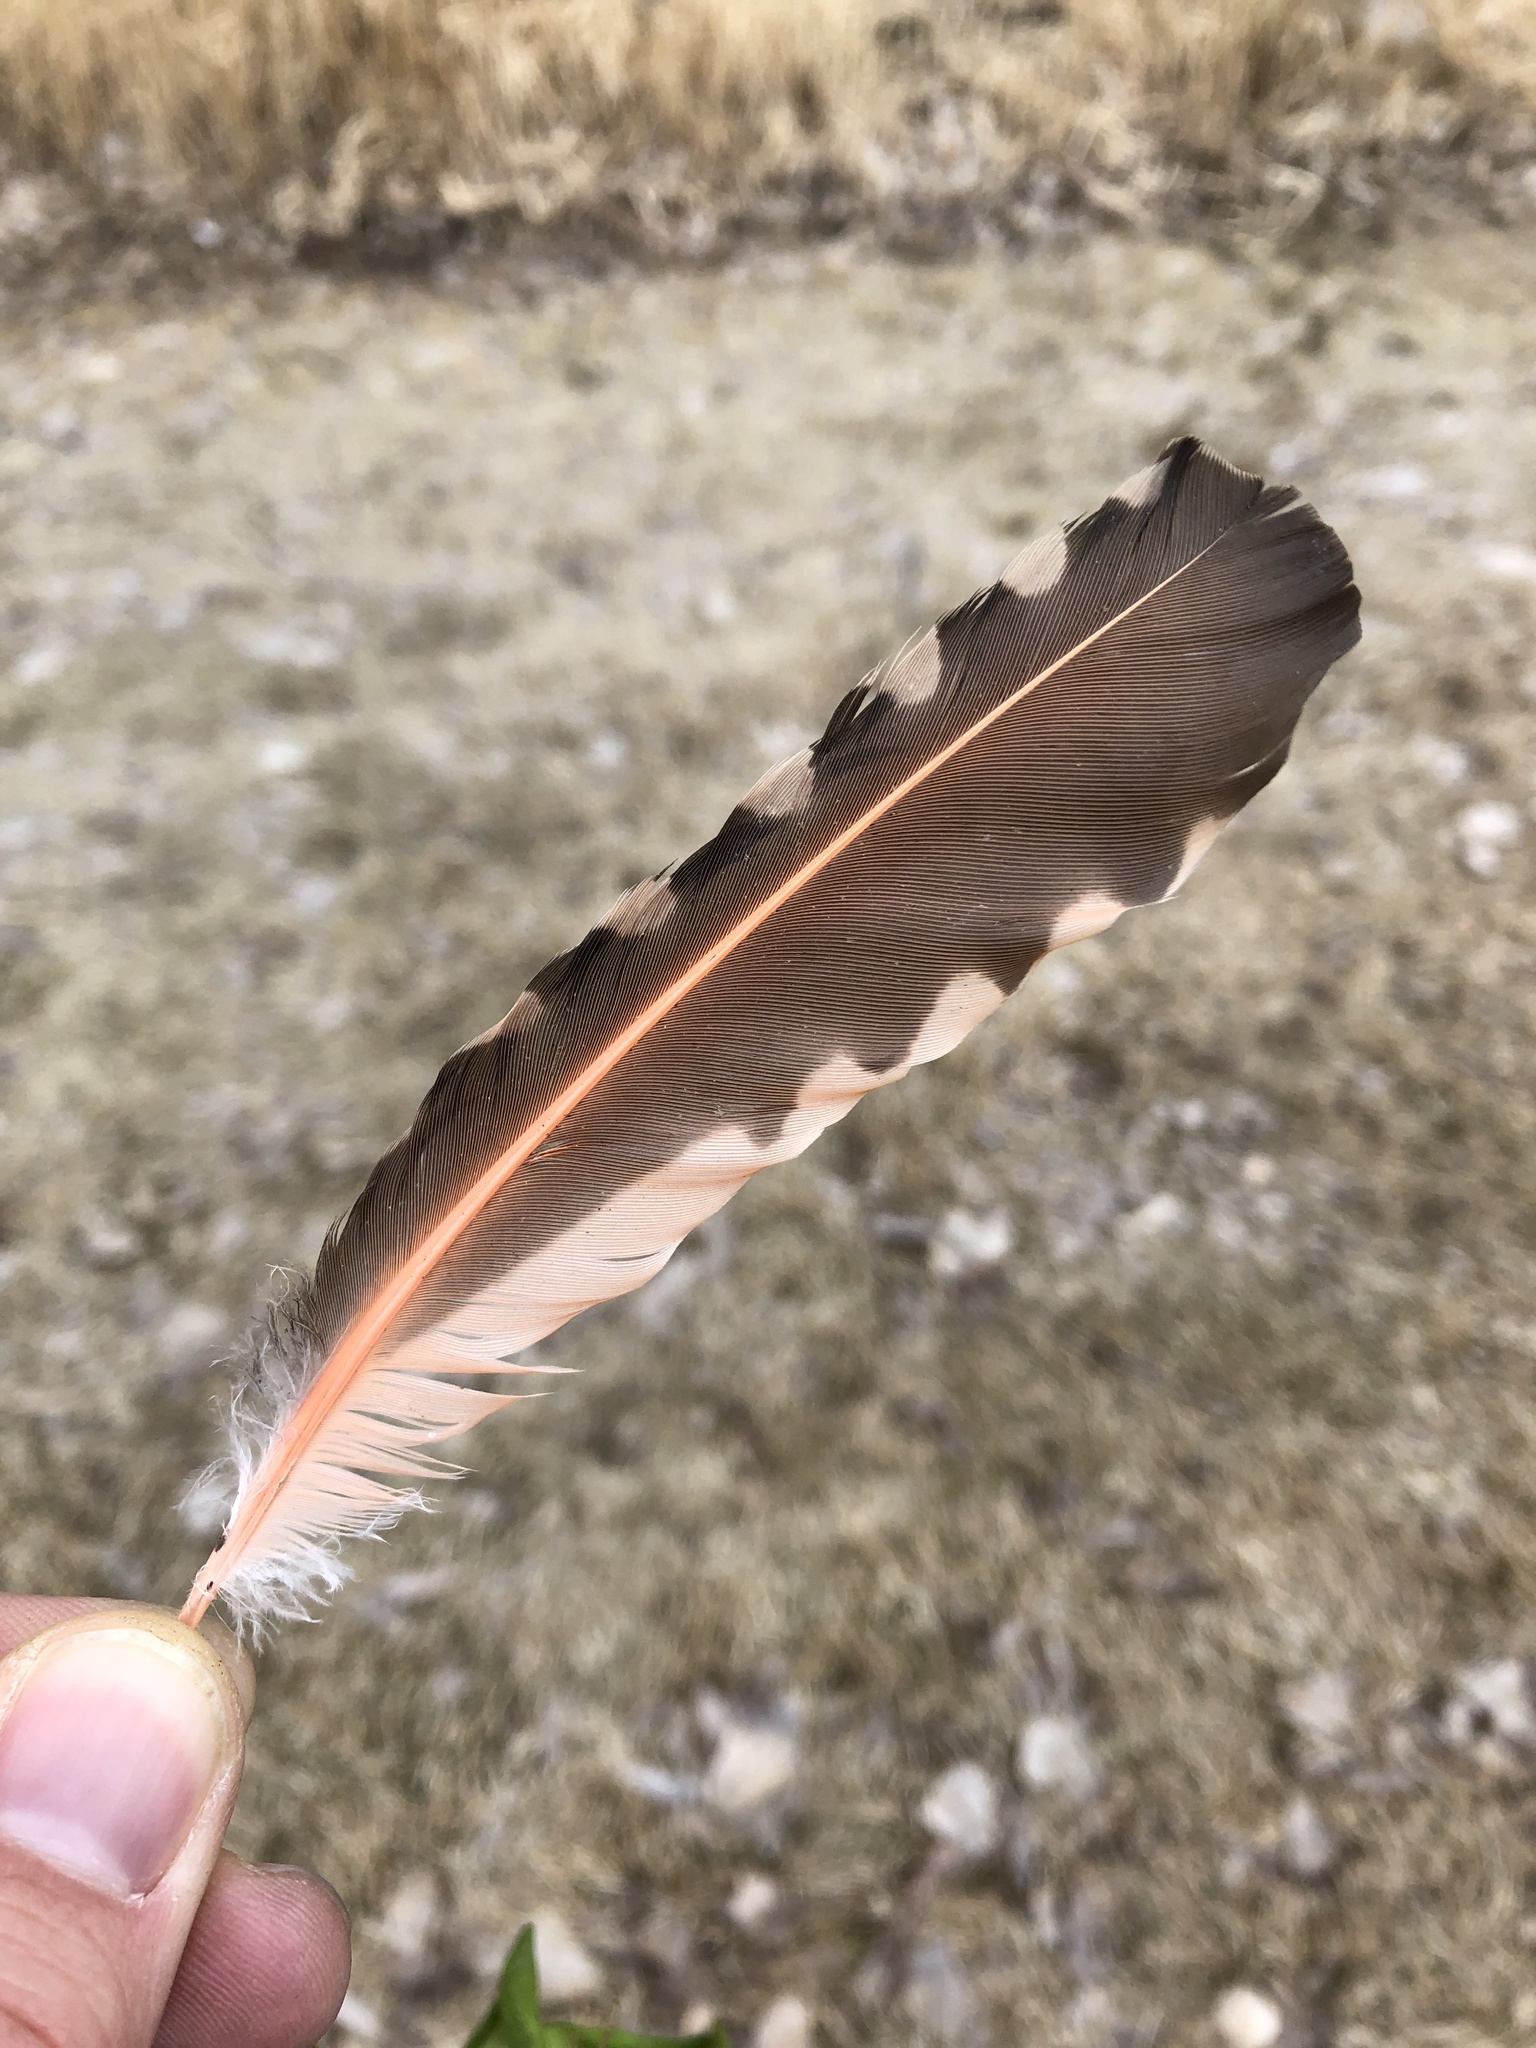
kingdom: Animalia
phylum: Chordata
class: Aves
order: Piciformes
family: Picidae
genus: Colaptes
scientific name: Colaptes auratus
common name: Northern flicker
